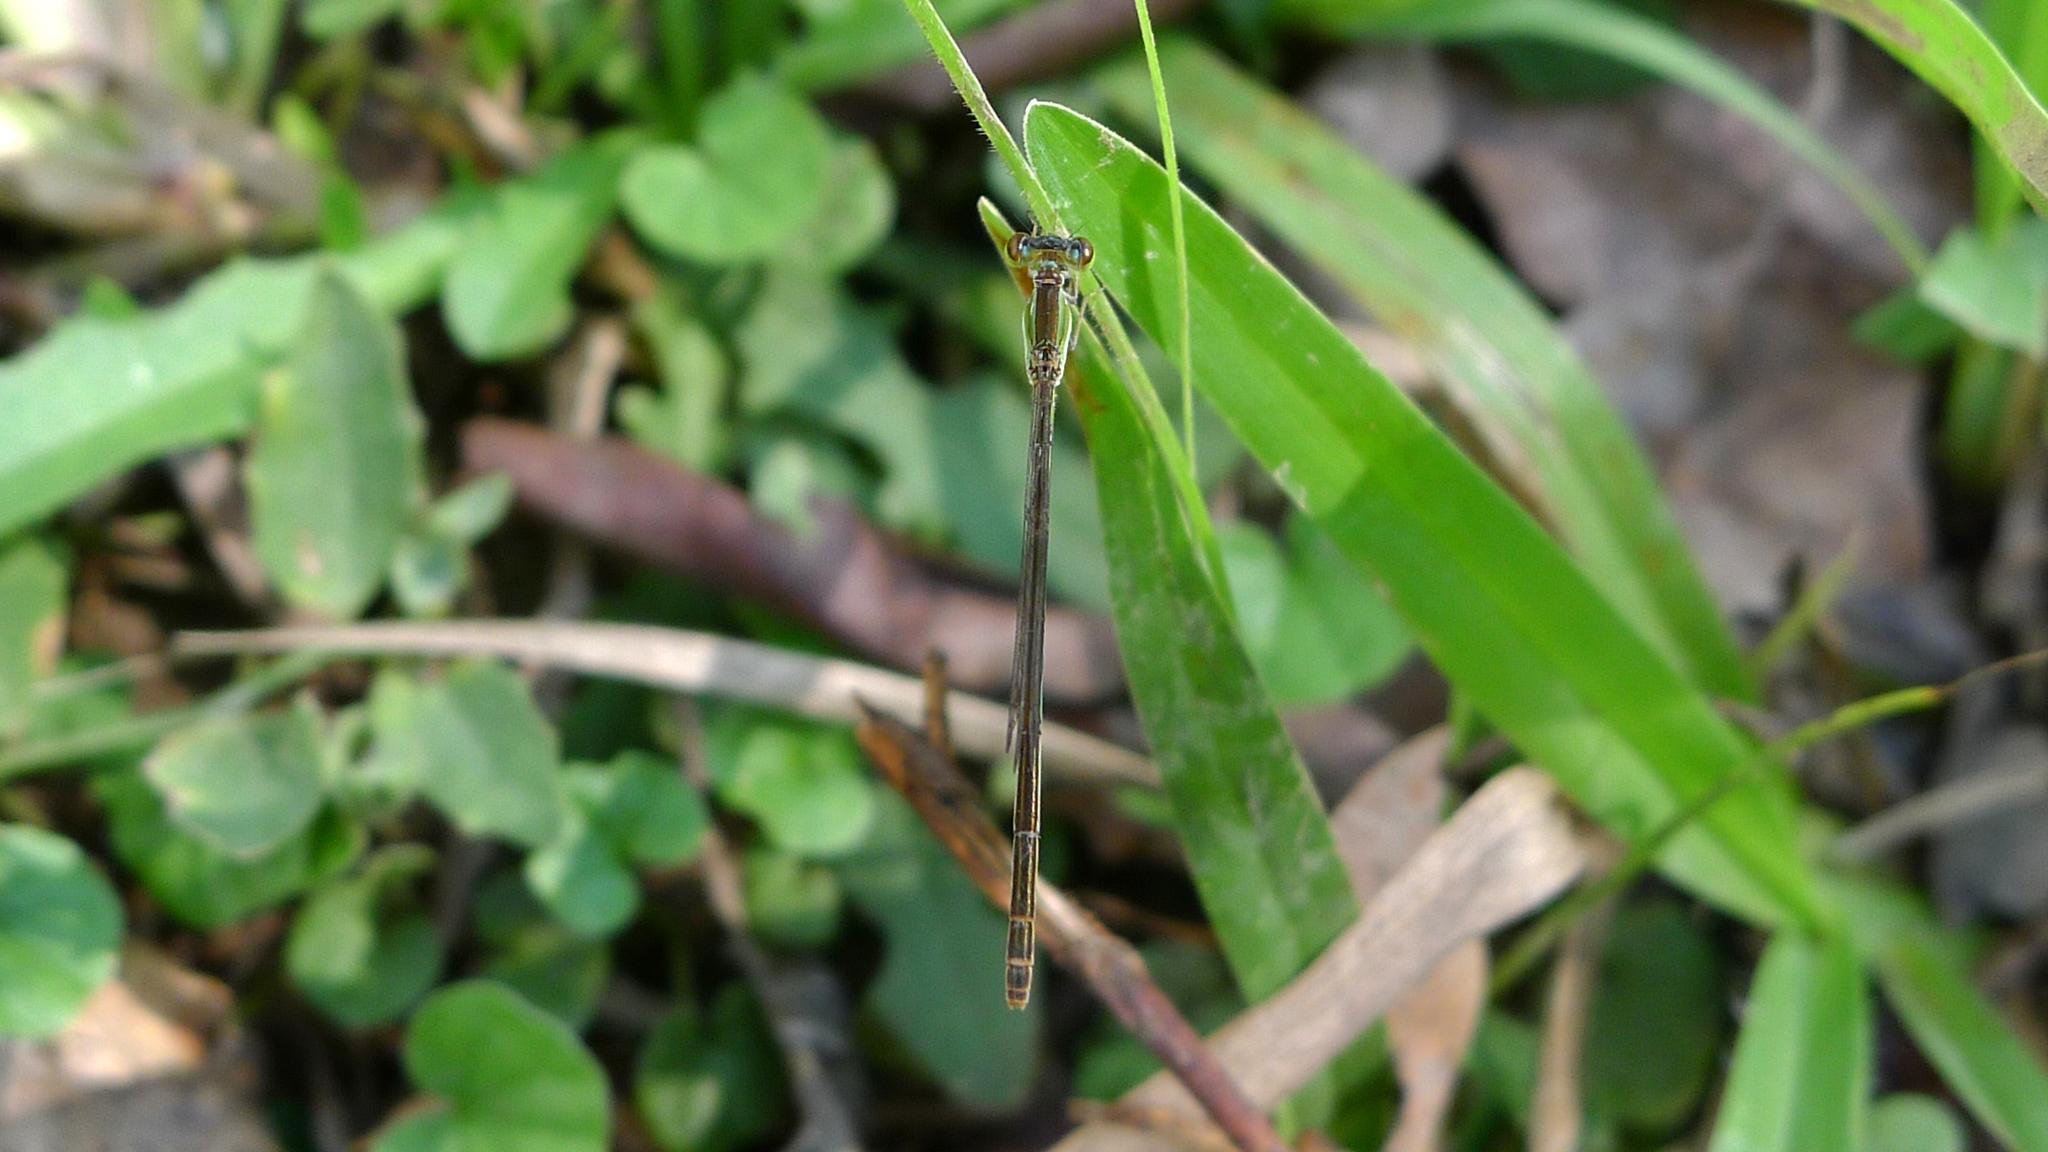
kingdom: Animalia
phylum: Arthropoda
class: Insecta
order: Odonata
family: Coenagrionidae
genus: Agriocnemis
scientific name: Agriocnemis pygmaea
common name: Pygmy wisp
